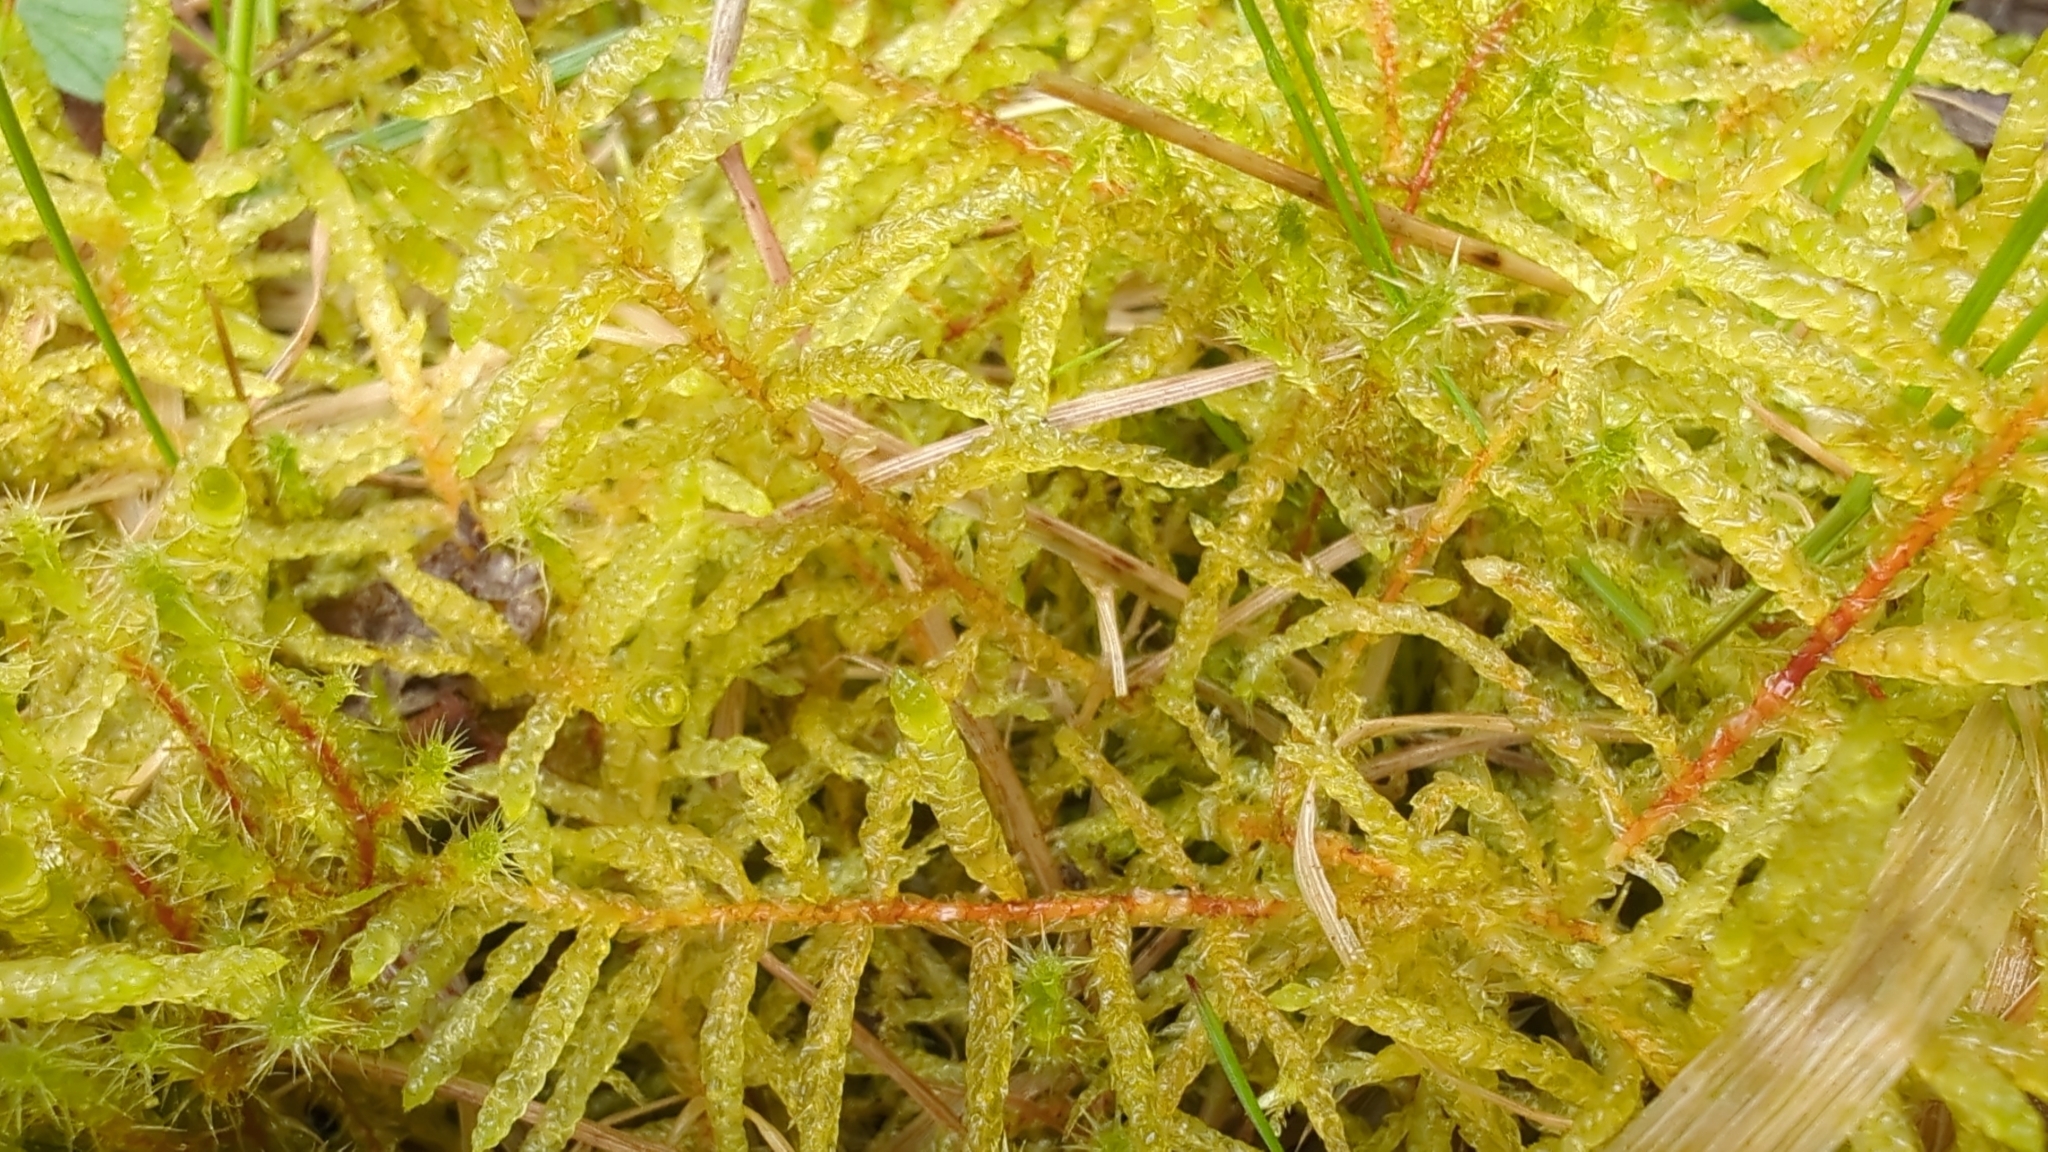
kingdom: Plantae
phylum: Bryophyta
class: Bryopsida
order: Hypnales
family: Brachytheciaceae
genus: Pseudoscleropodium
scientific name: Pseudoscleropodium purum
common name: Neat feather-moss
